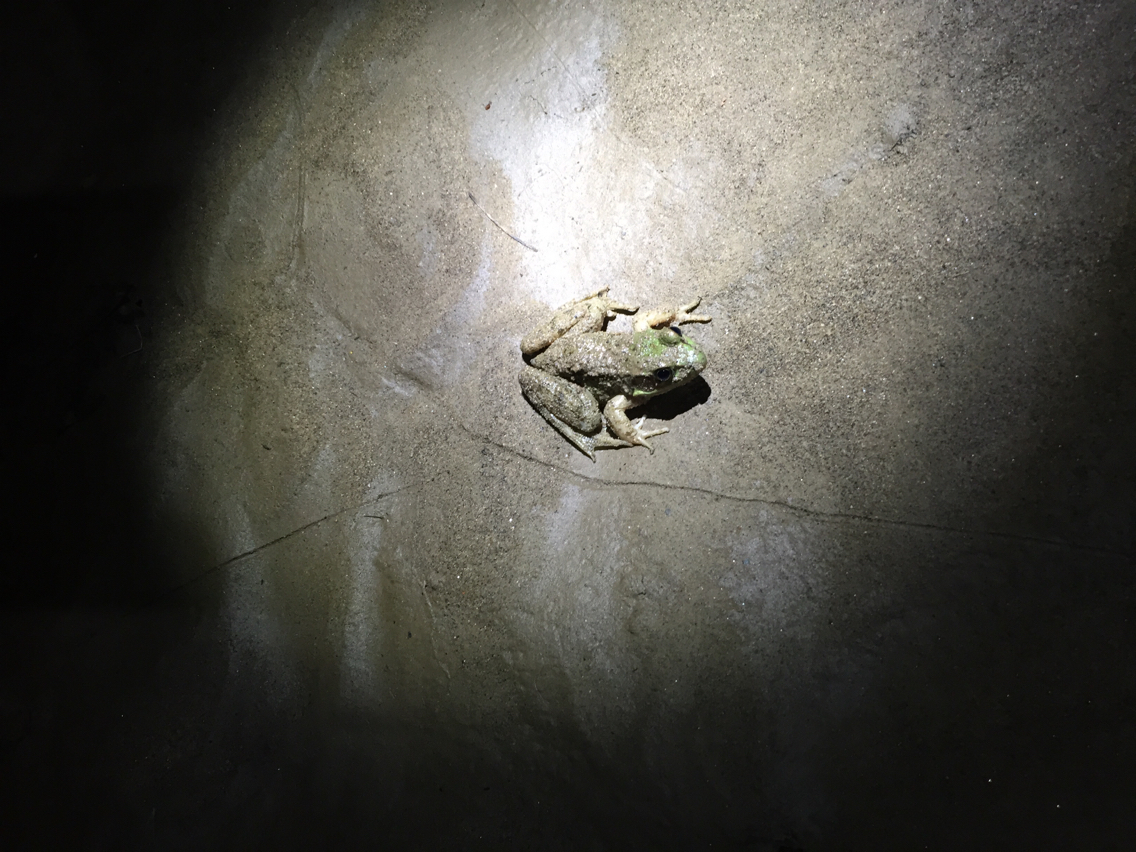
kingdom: Animalia
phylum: Chordata
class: Amphibia
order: Anura
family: Ranidae
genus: Lithobates
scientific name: Lithobates clamitans
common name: Green frog
